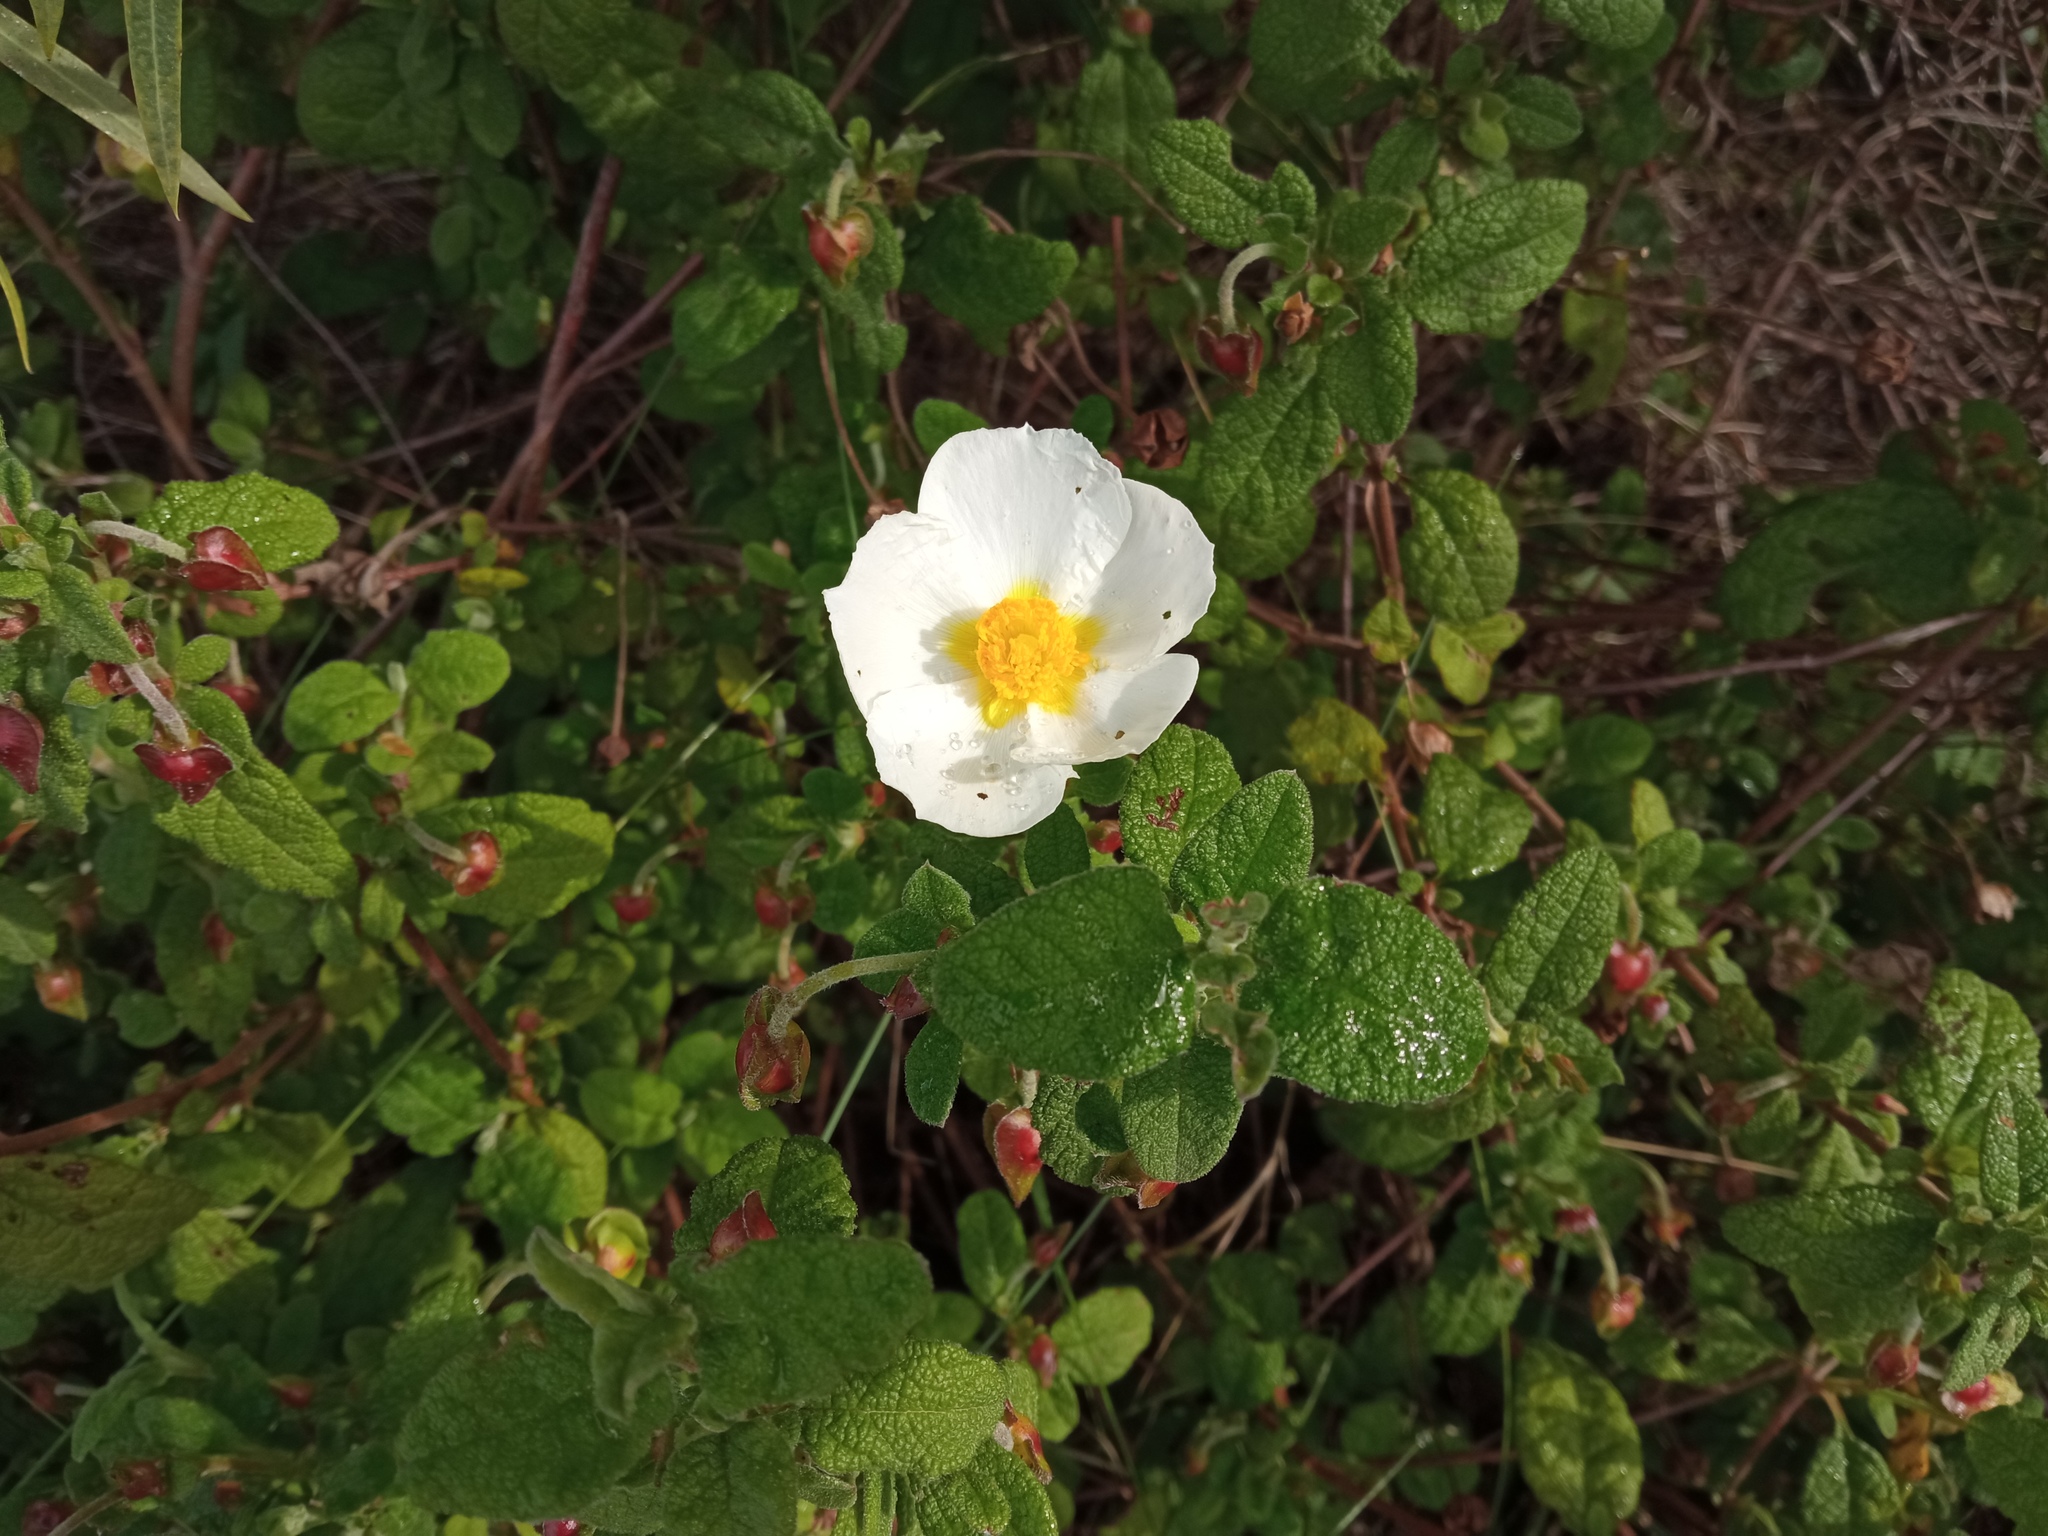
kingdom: Plantae
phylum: Tracheophyta
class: Magnoliopsida
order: Malvales
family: Cistaceae
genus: Cistus
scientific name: Cistus salviifolius
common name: Salvia cistus
